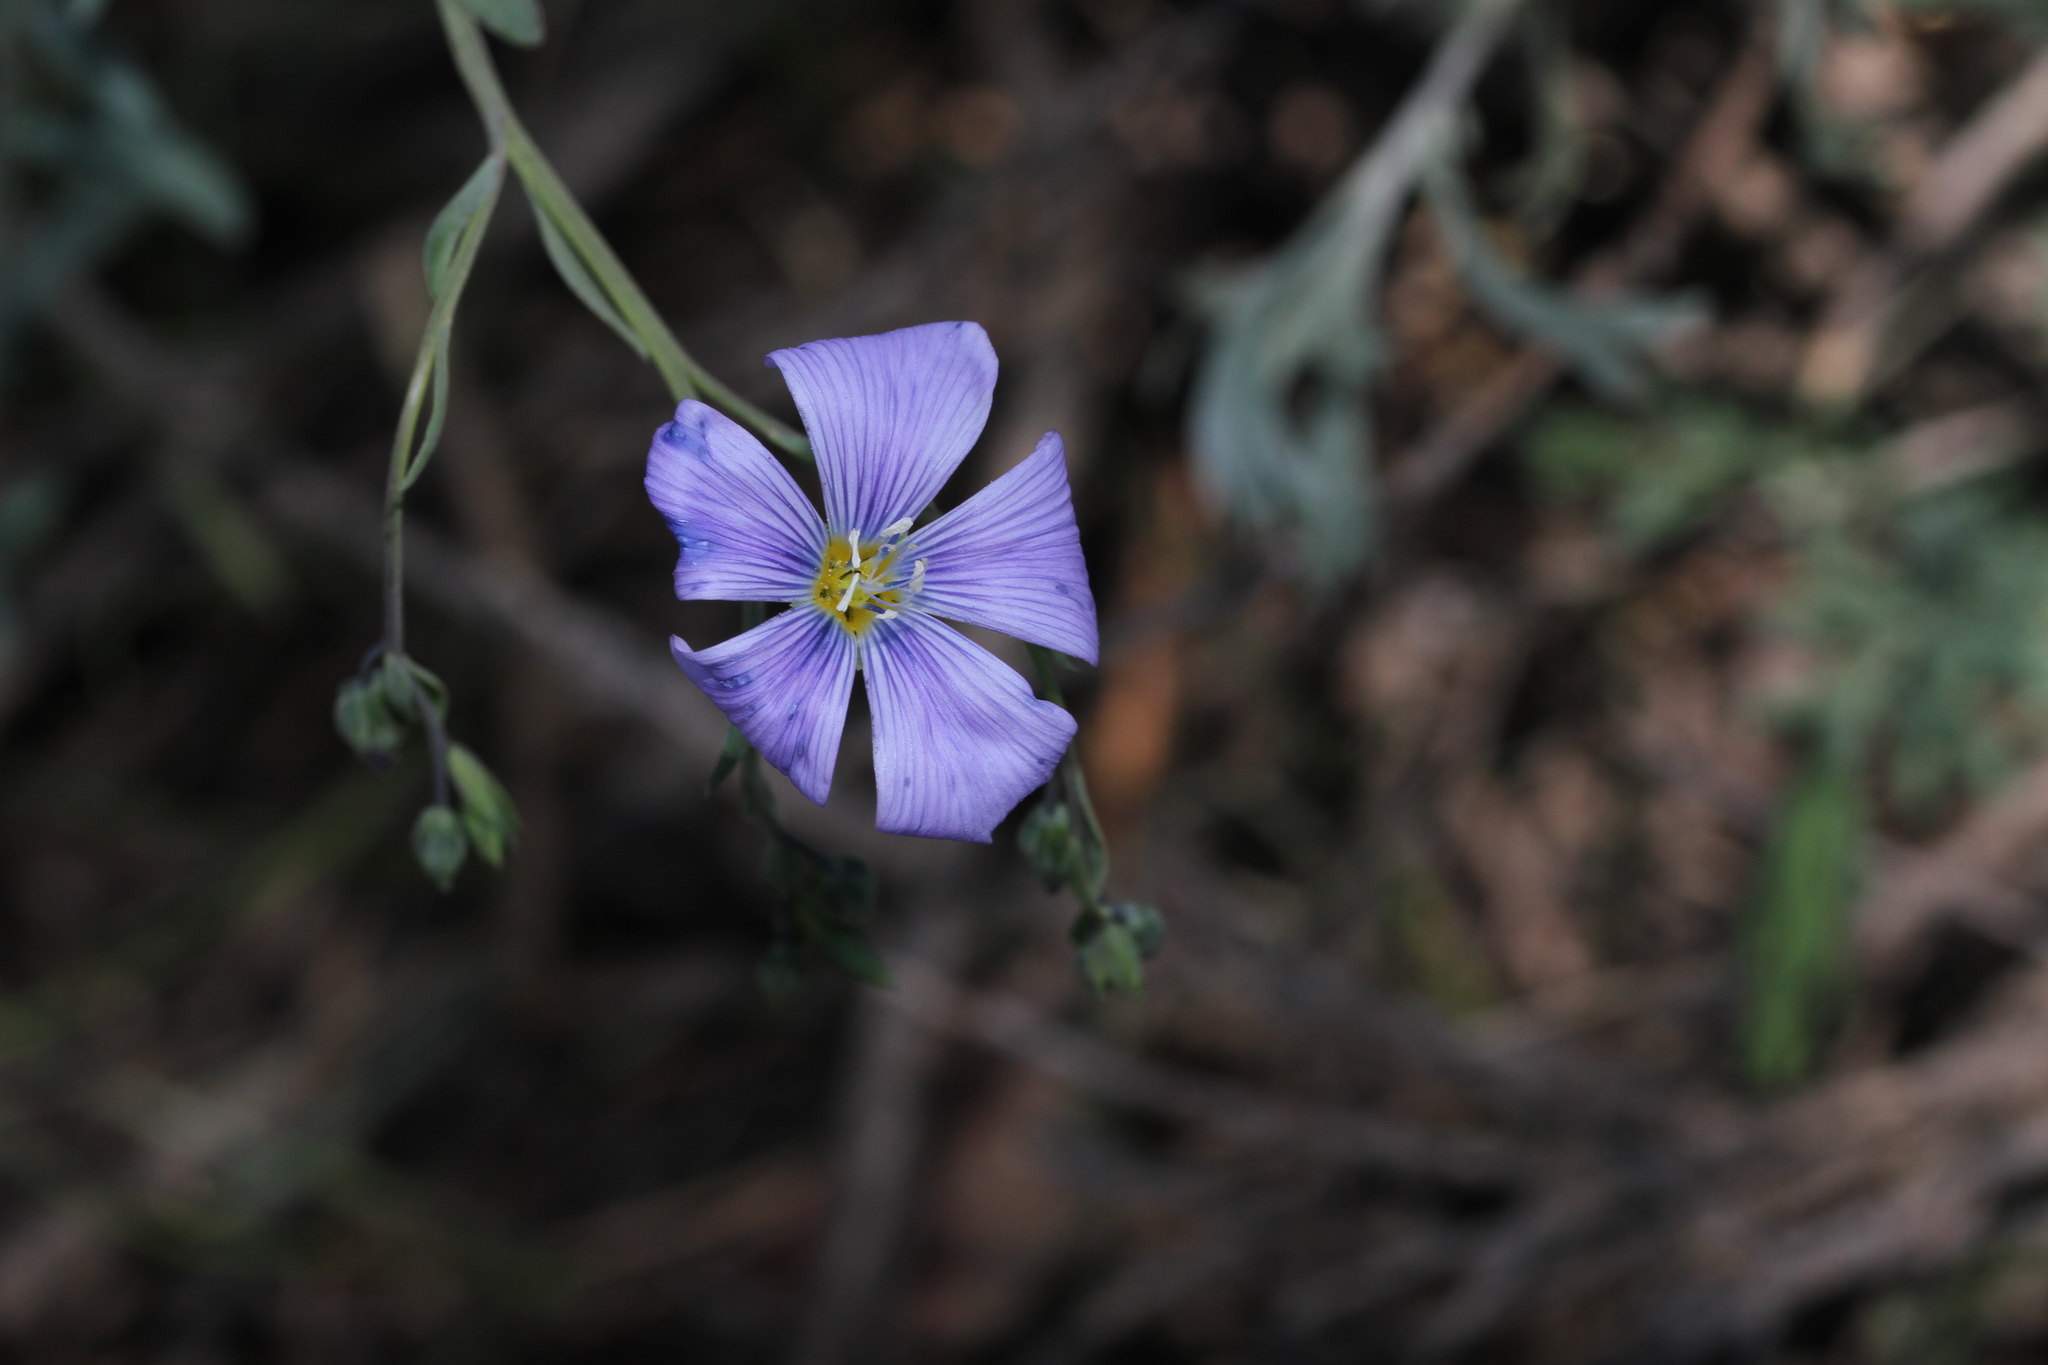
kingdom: Plantae
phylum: Tracheophyta
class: Magnoliopsida
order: Malpighiales
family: Linaceae
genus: Linum
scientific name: Linum lewisii
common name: Prairie flax
